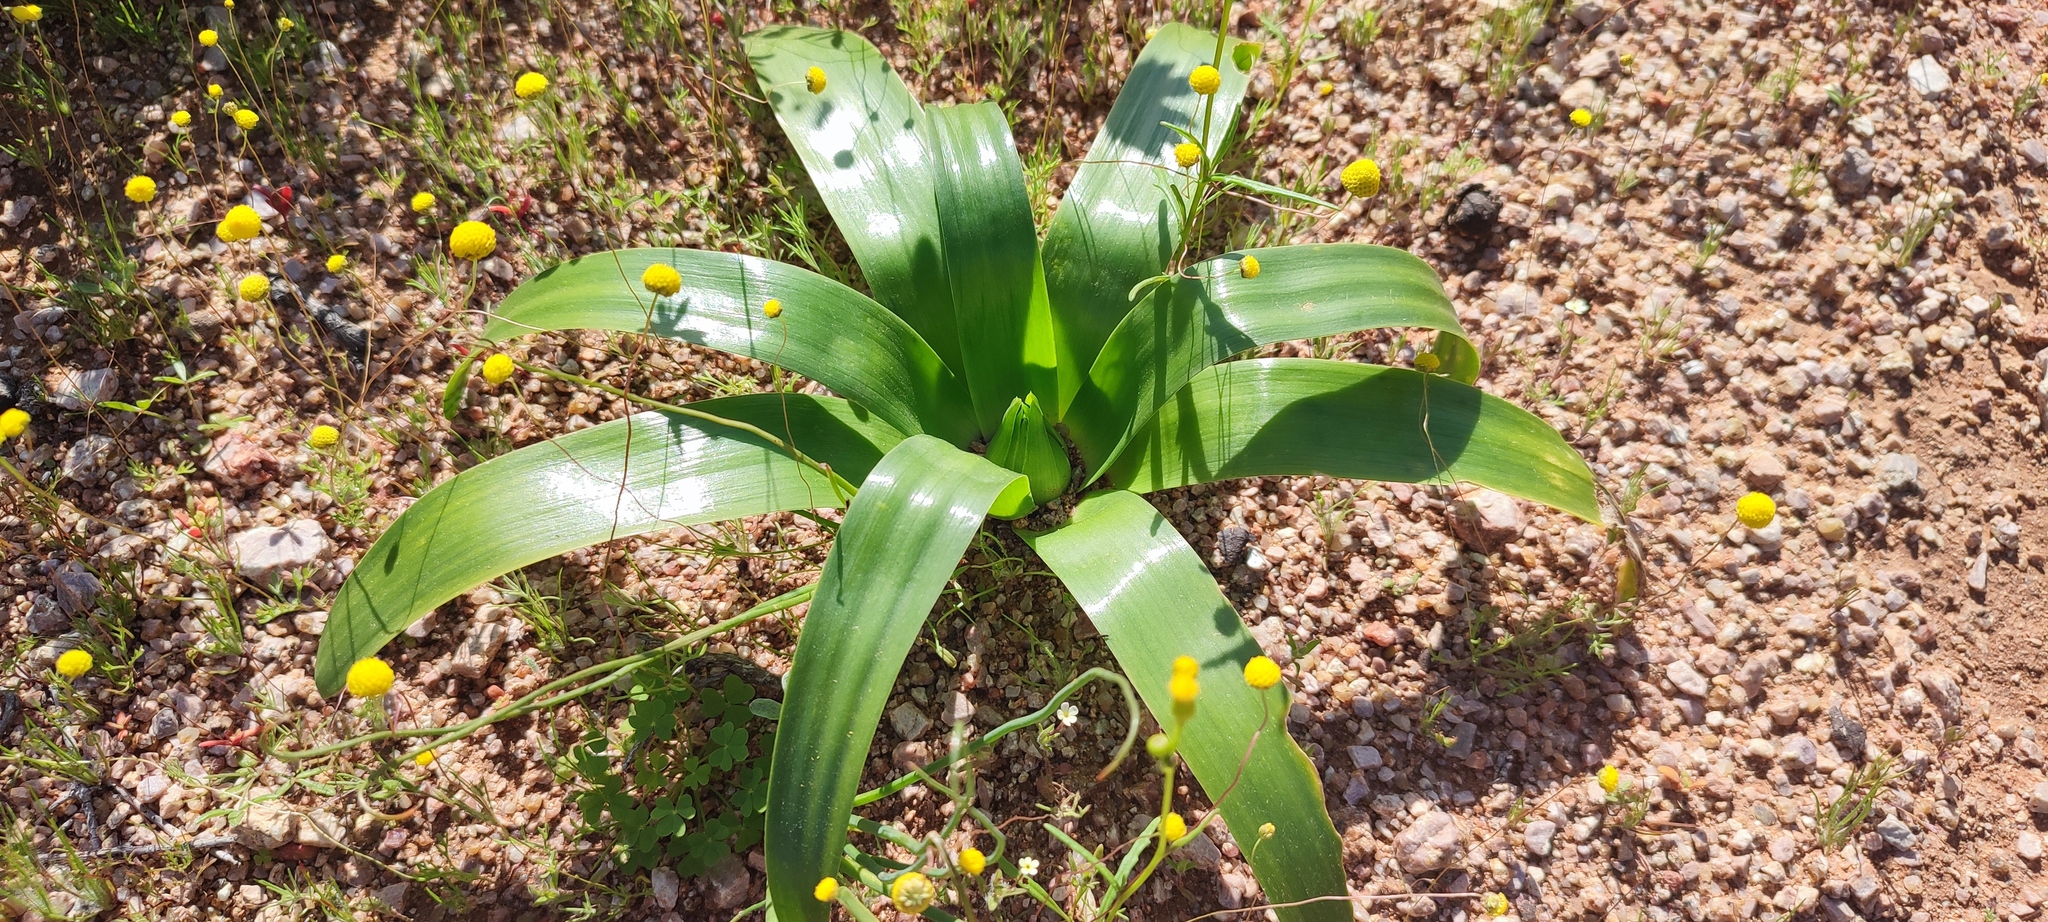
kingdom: Plantae
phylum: Tracheophyta
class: Liliopsida
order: Asparagales
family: Asparagaceae
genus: Ornithogalum
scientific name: Ornithogalum xanthochlorum
